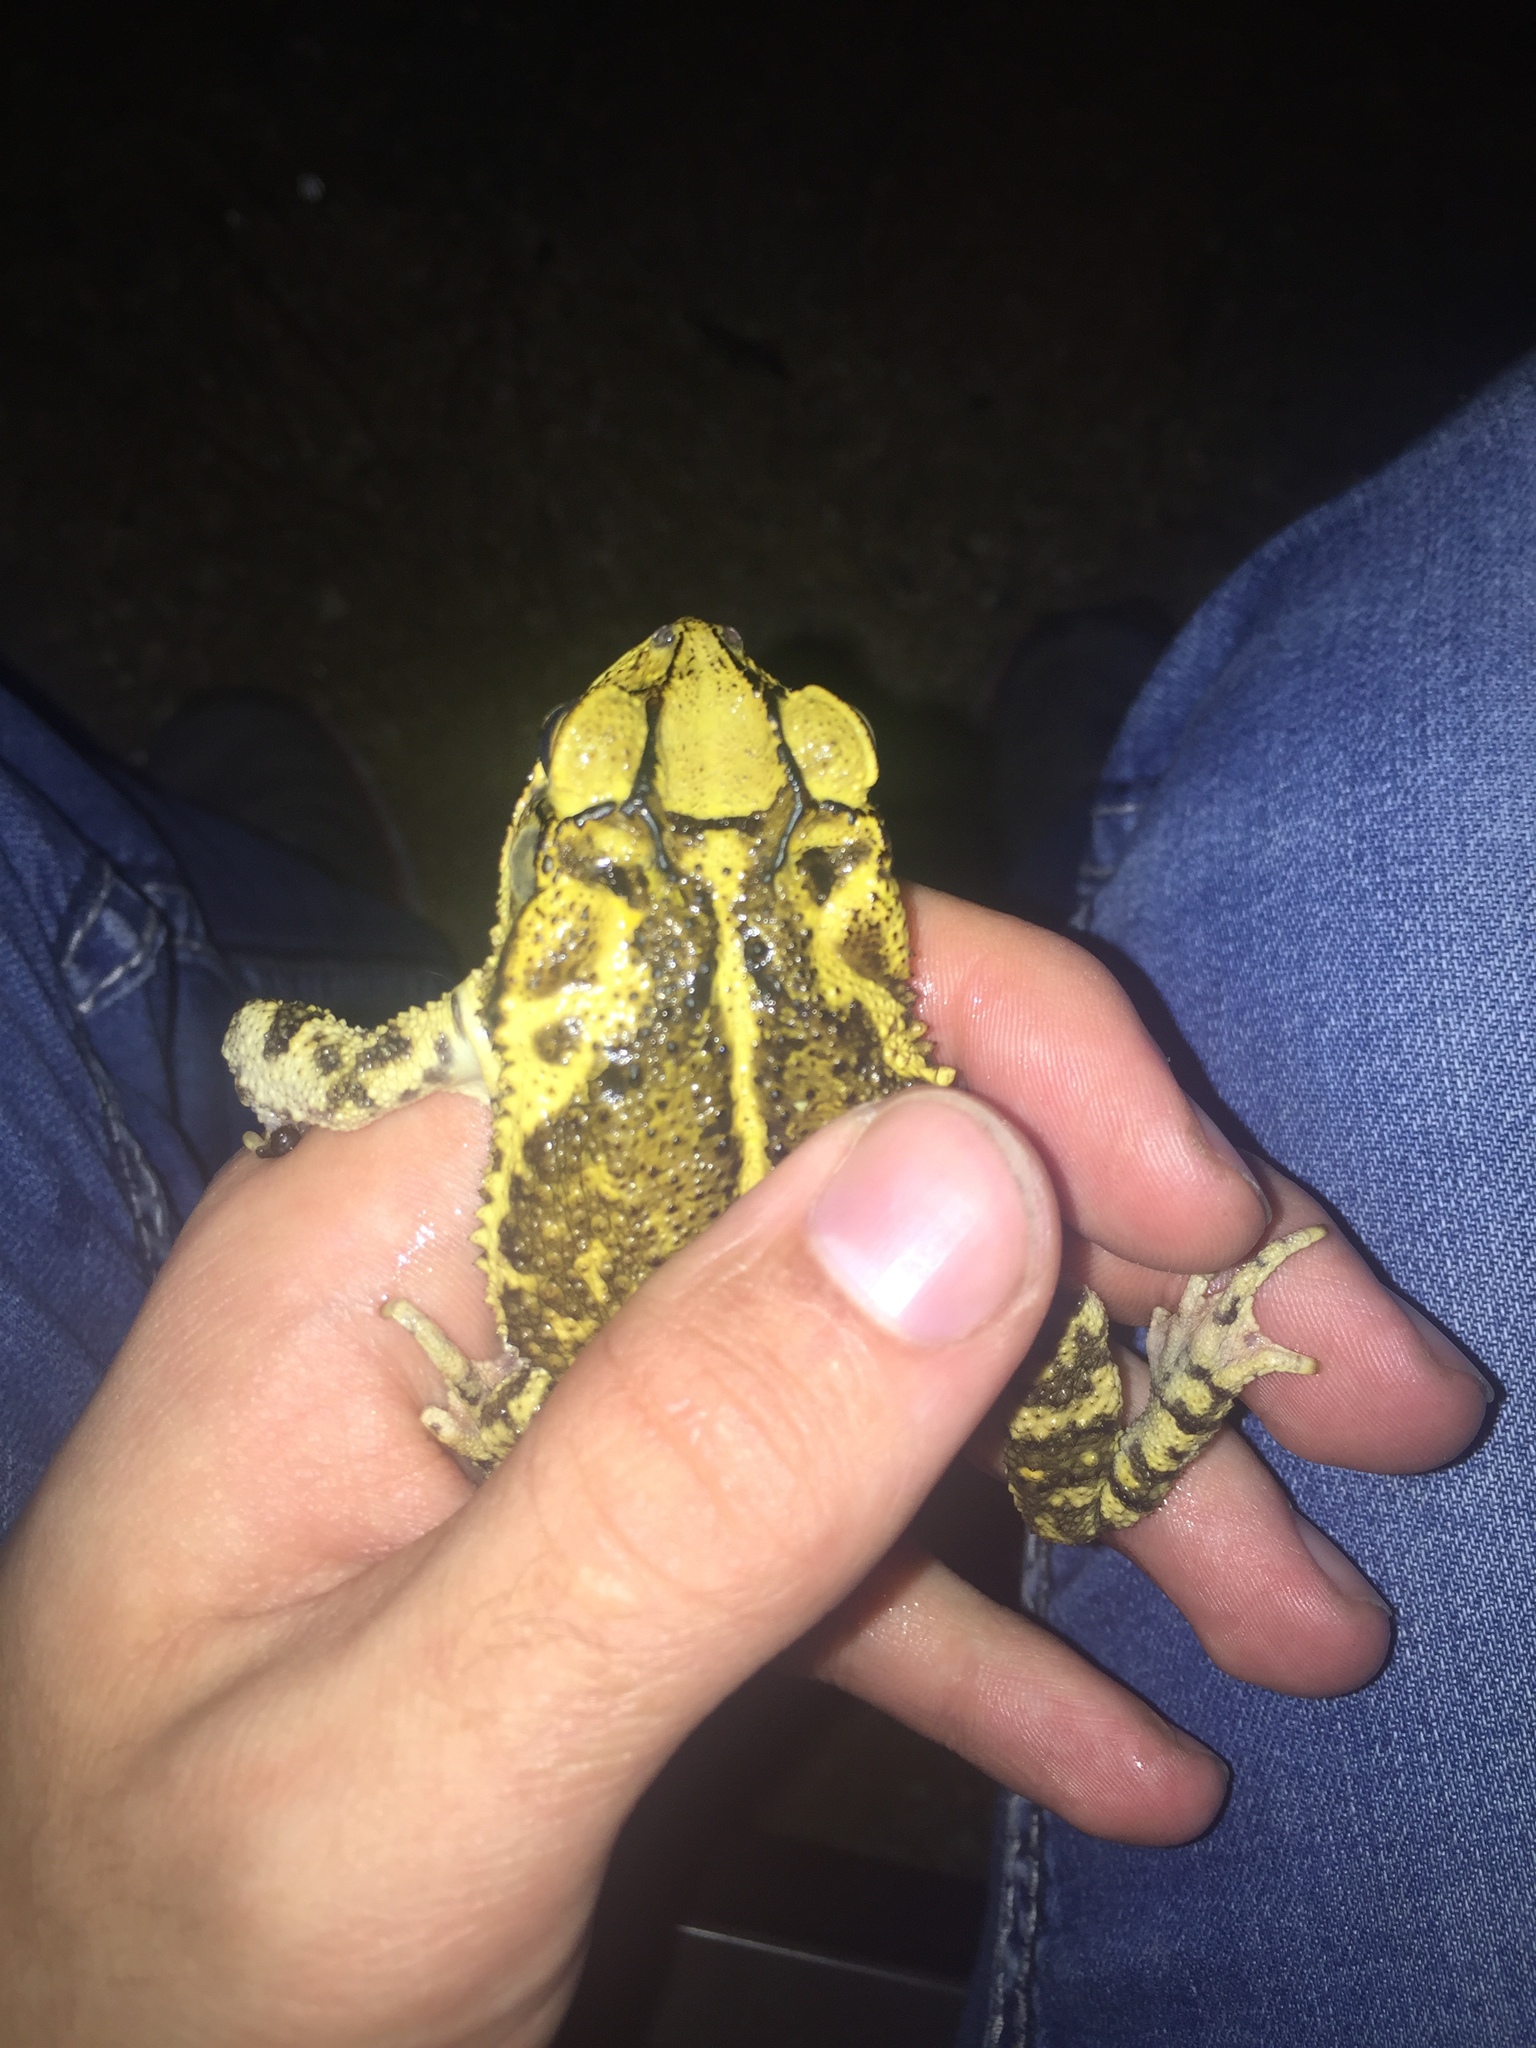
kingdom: Animalia
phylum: Chordata
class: Amphibia
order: Anura
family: Bufonidae
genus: Incilius
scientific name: Incilius nebulifer
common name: Gulf coast toad
